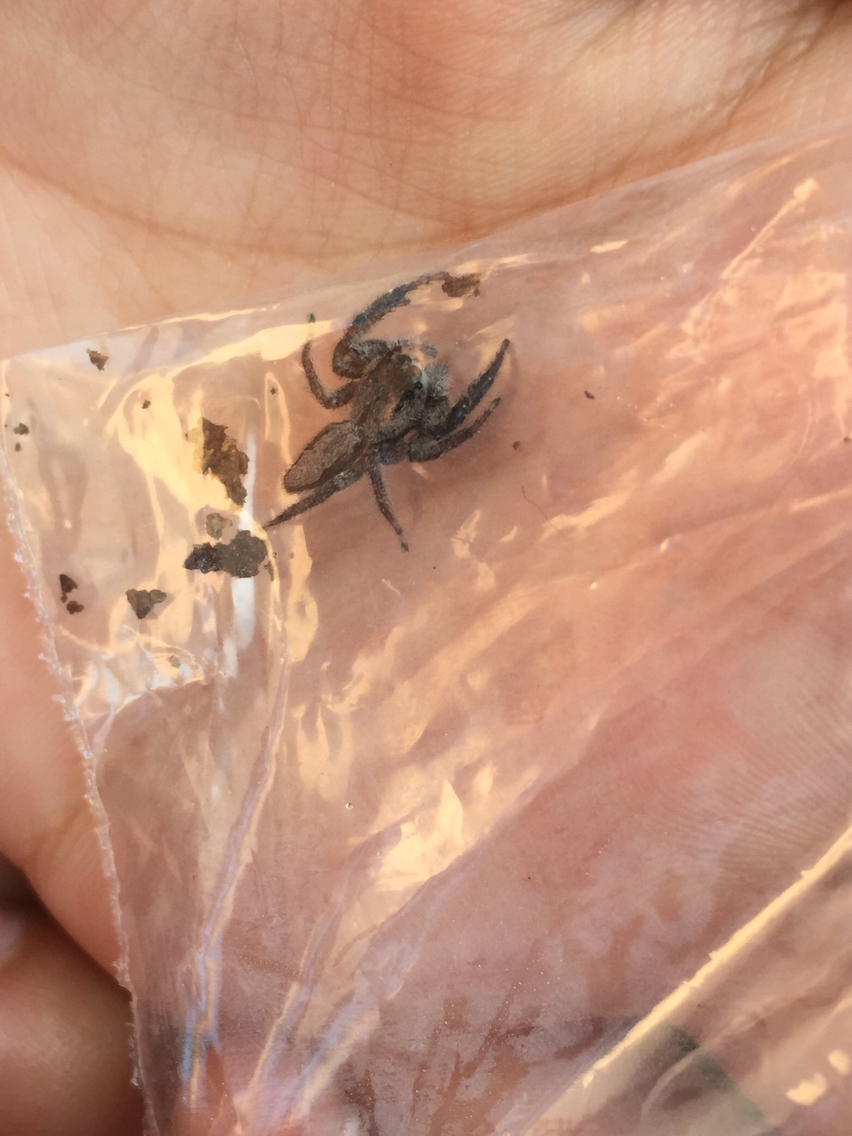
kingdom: Animalia
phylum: Arthropoda
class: Arachnida
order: Araneae
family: Salticidae
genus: Platycryptus
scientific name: Platycryptus undatus
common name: Tan jumping spider
